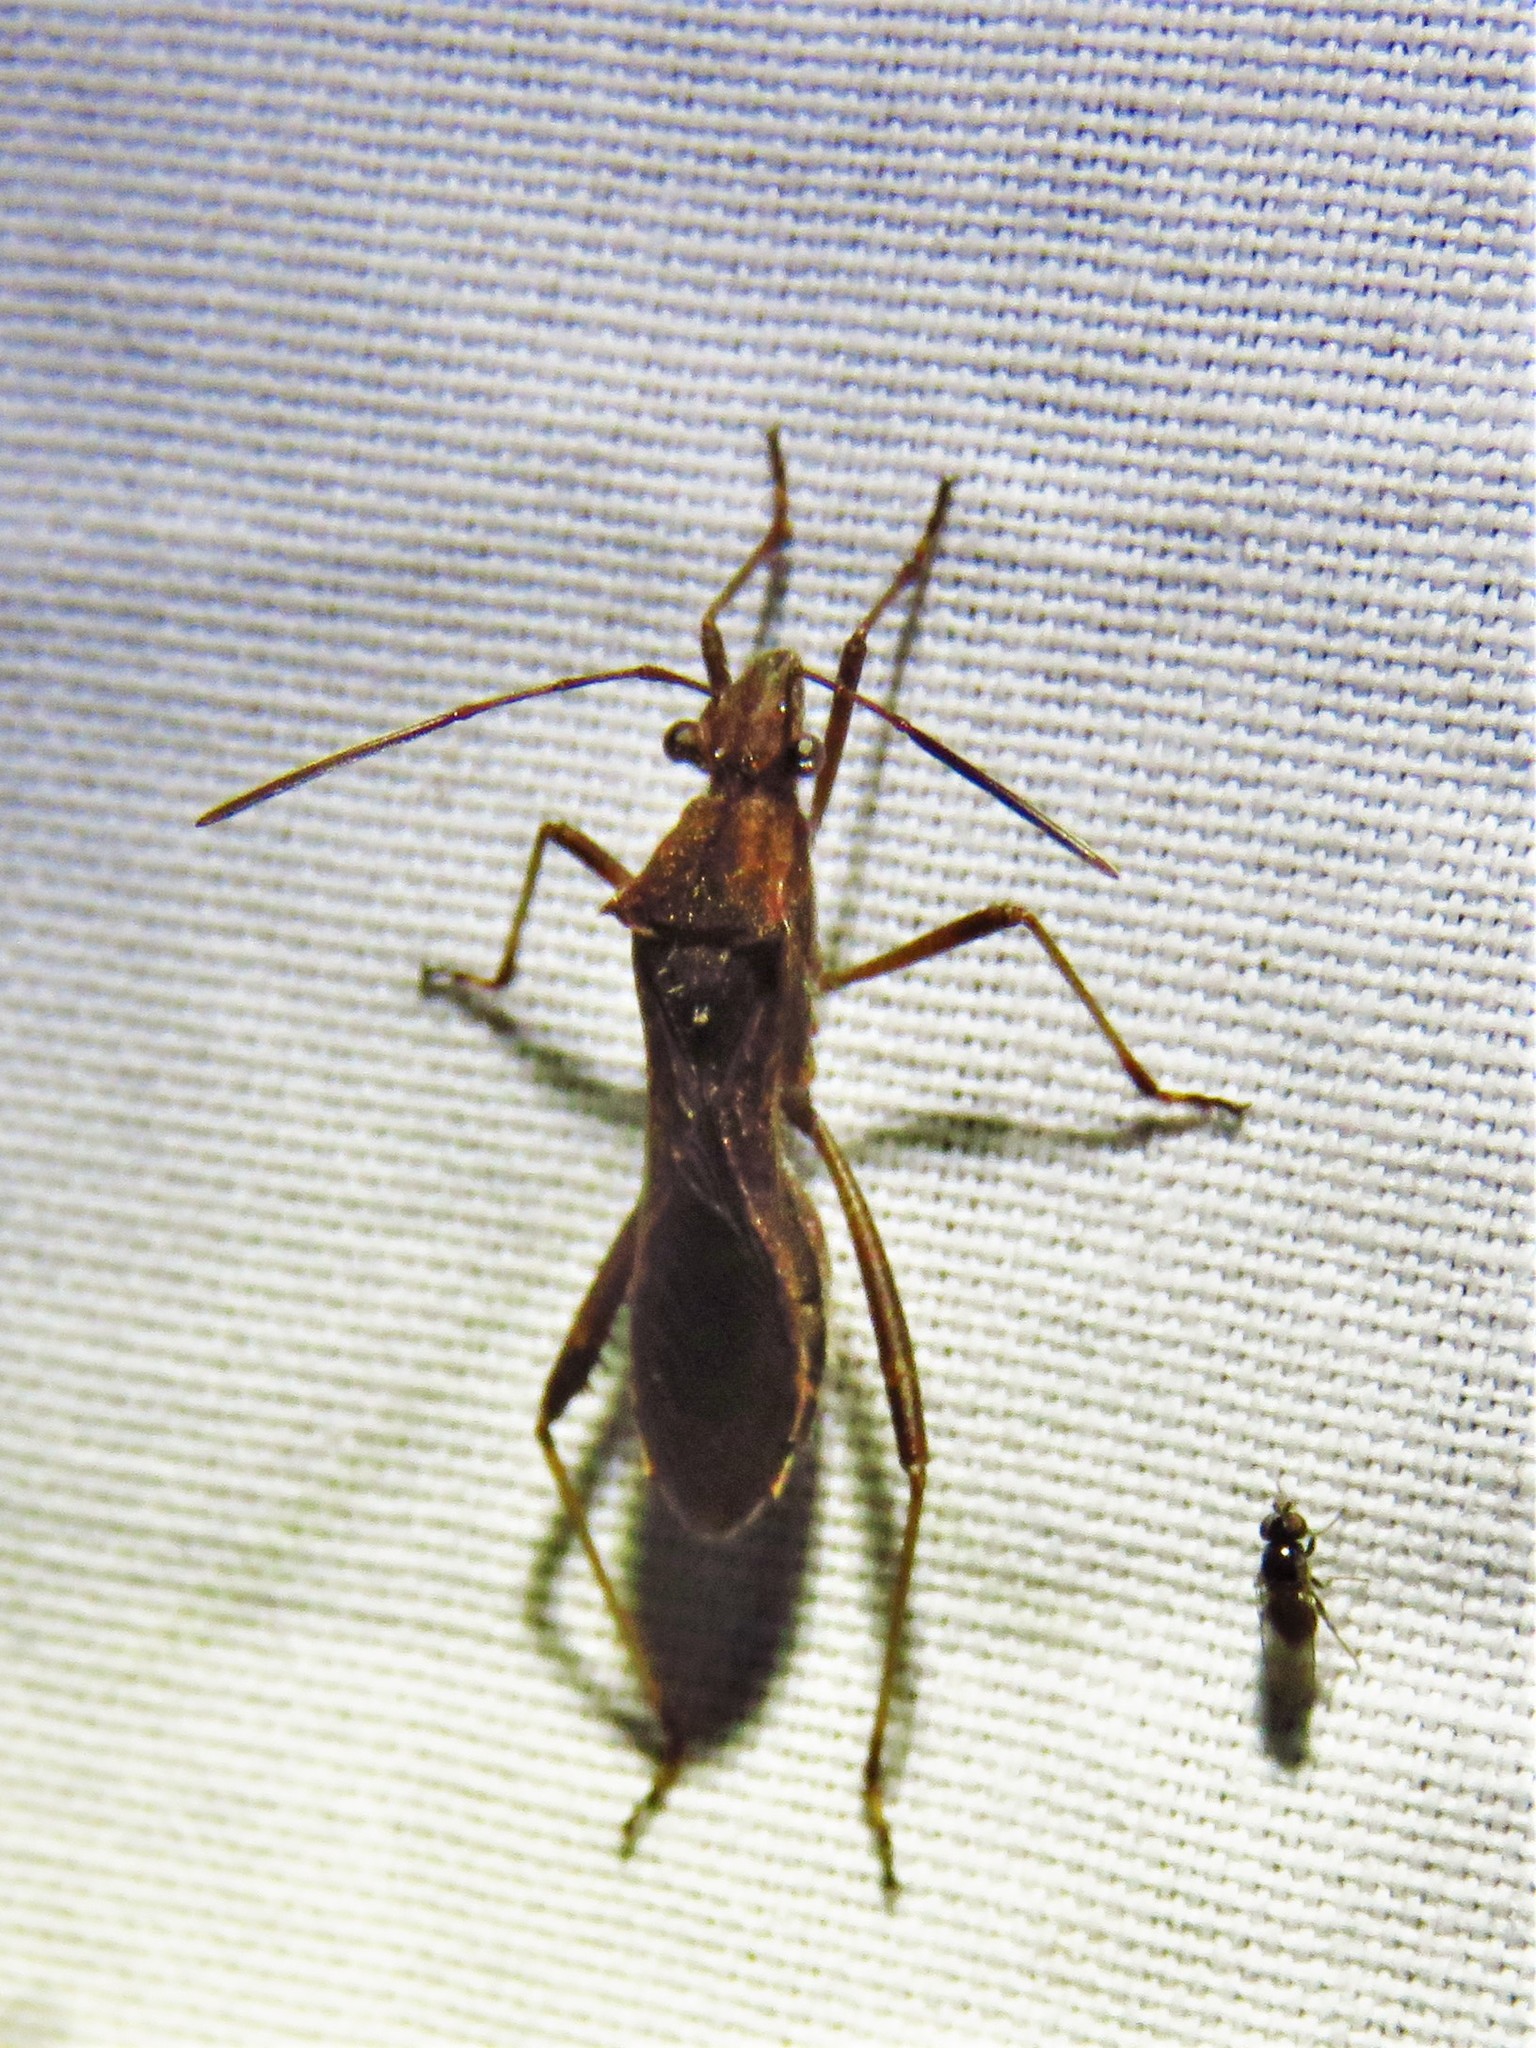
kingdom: Animalia
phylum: Arthropoda
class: Insecta
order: Hemiptera
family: Alydidae
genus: Neomegalotomus
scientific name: Neomegalotomus parvus
